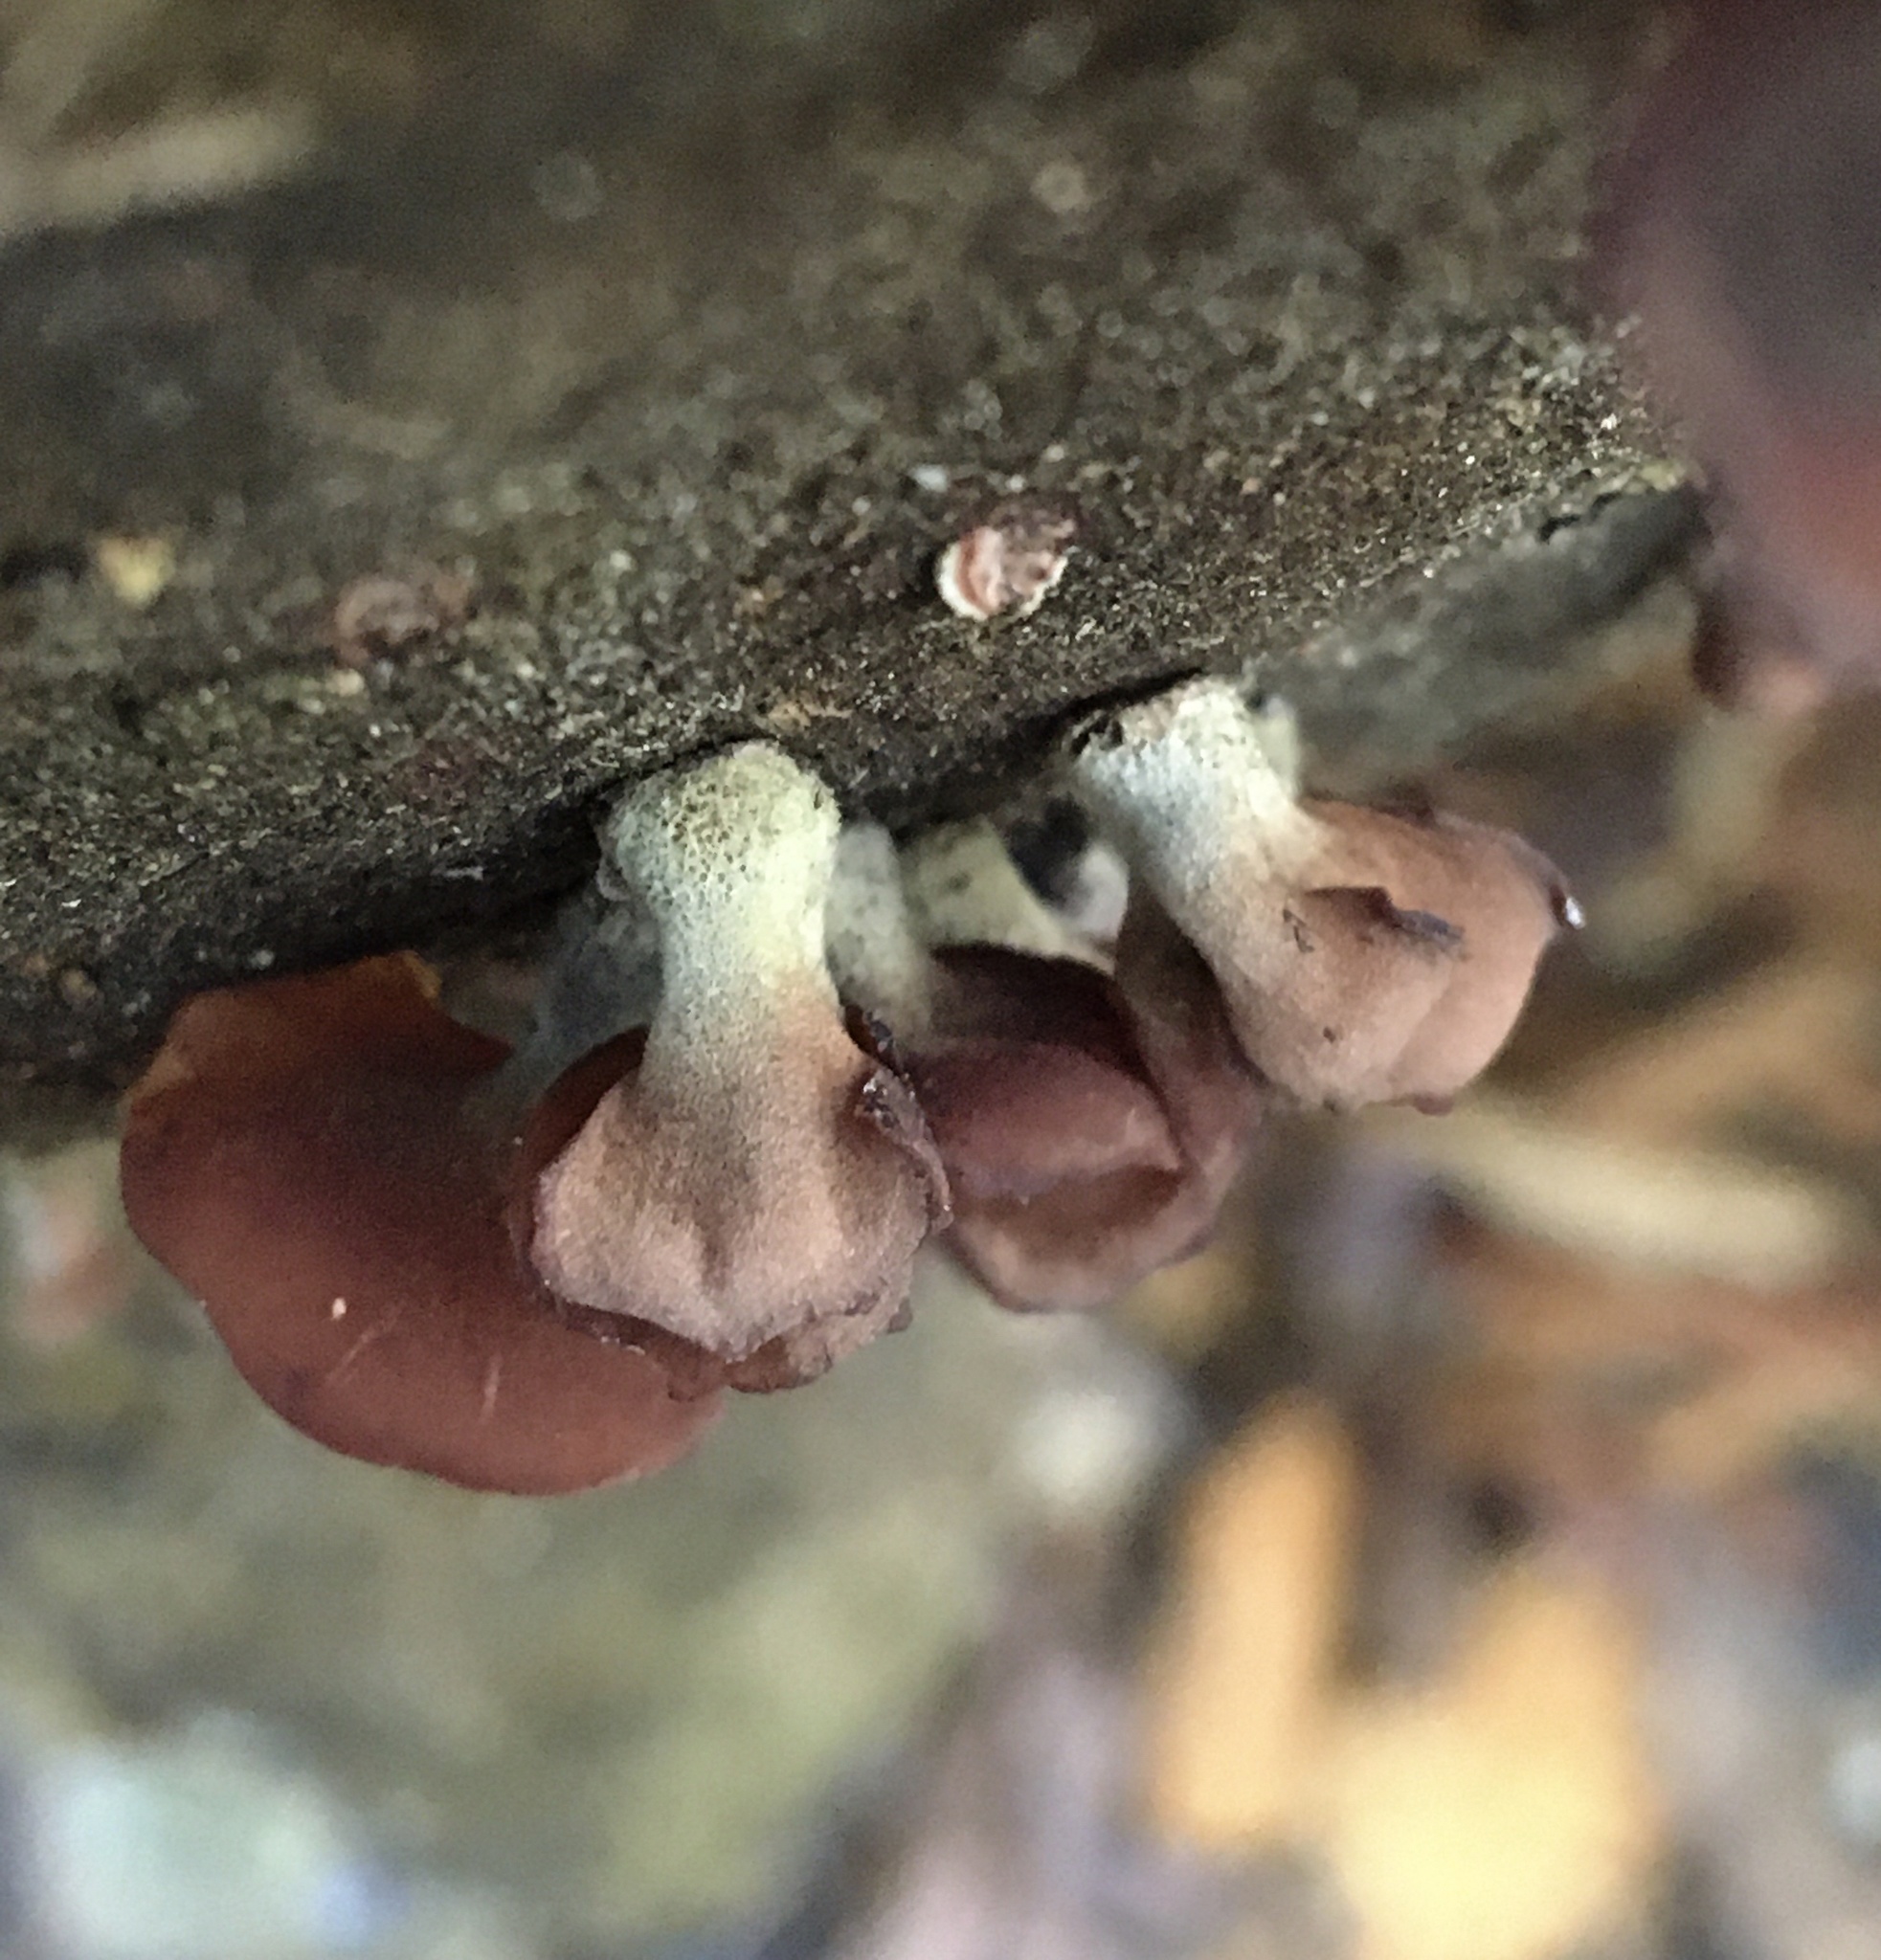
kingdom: Fungi
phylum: Basidiomycota
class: Dacrymycetes
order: Dacrymycetales
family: Dacrymycetaceae
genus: Dacryopinax
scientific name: Dacryopinax elegans
